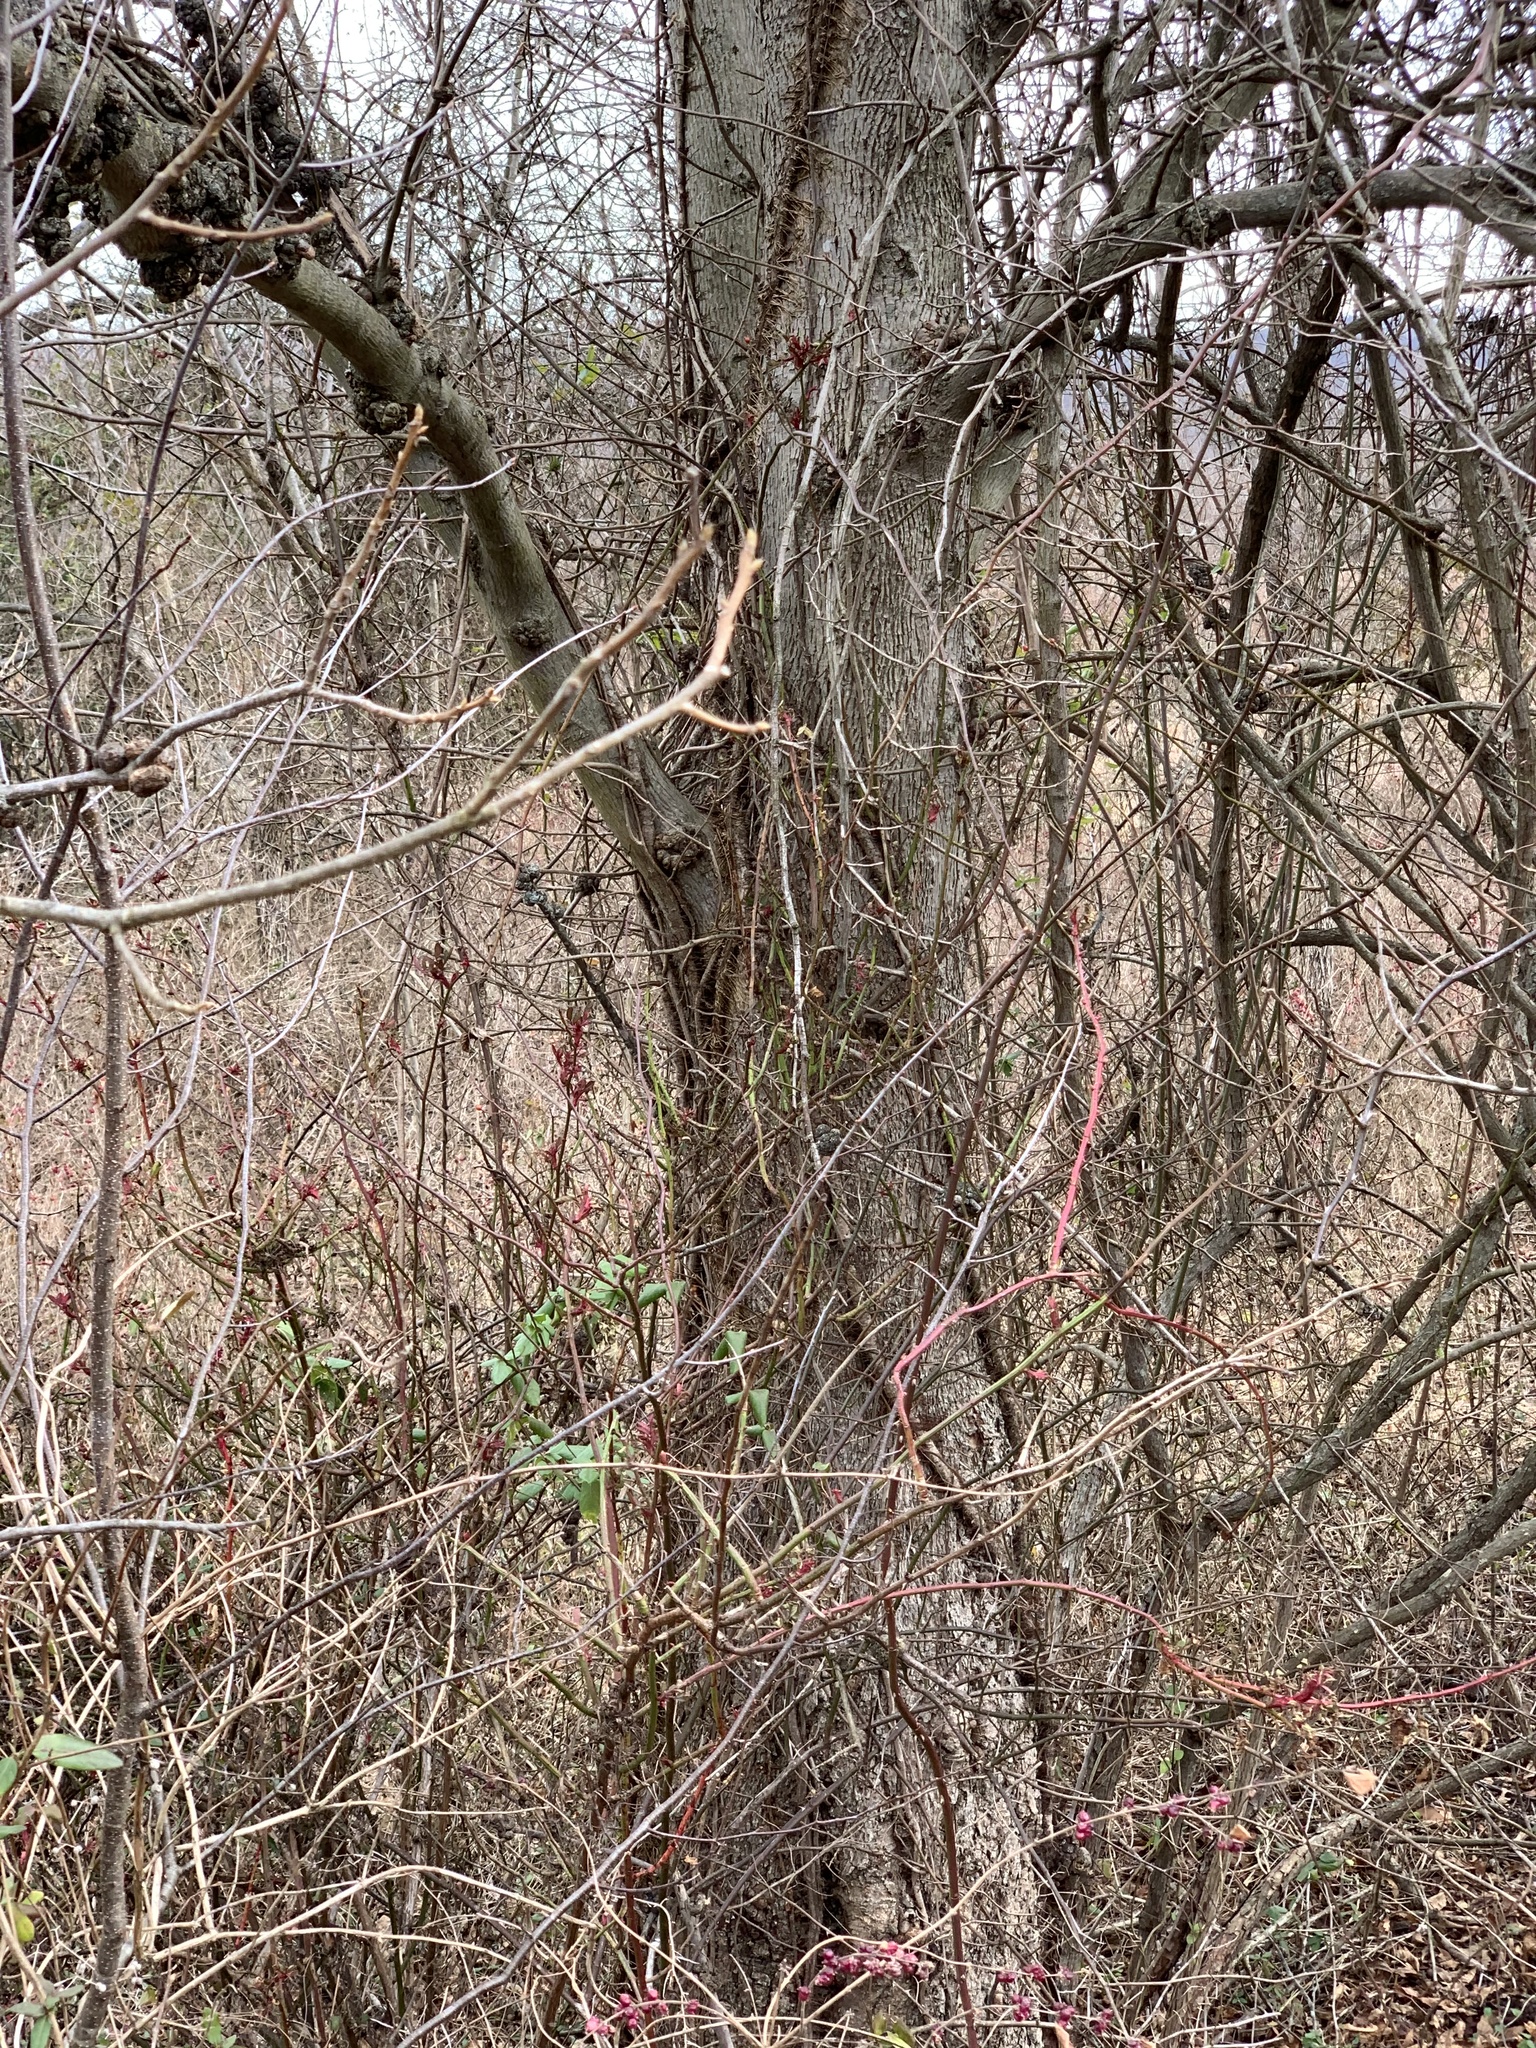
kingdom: Plantae
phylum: Tracheophyta
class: Magnoliopsida
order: Fagales
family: Juglandaceae
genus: Carya
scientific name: Carya cordiformis
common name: Bitternut hickory
